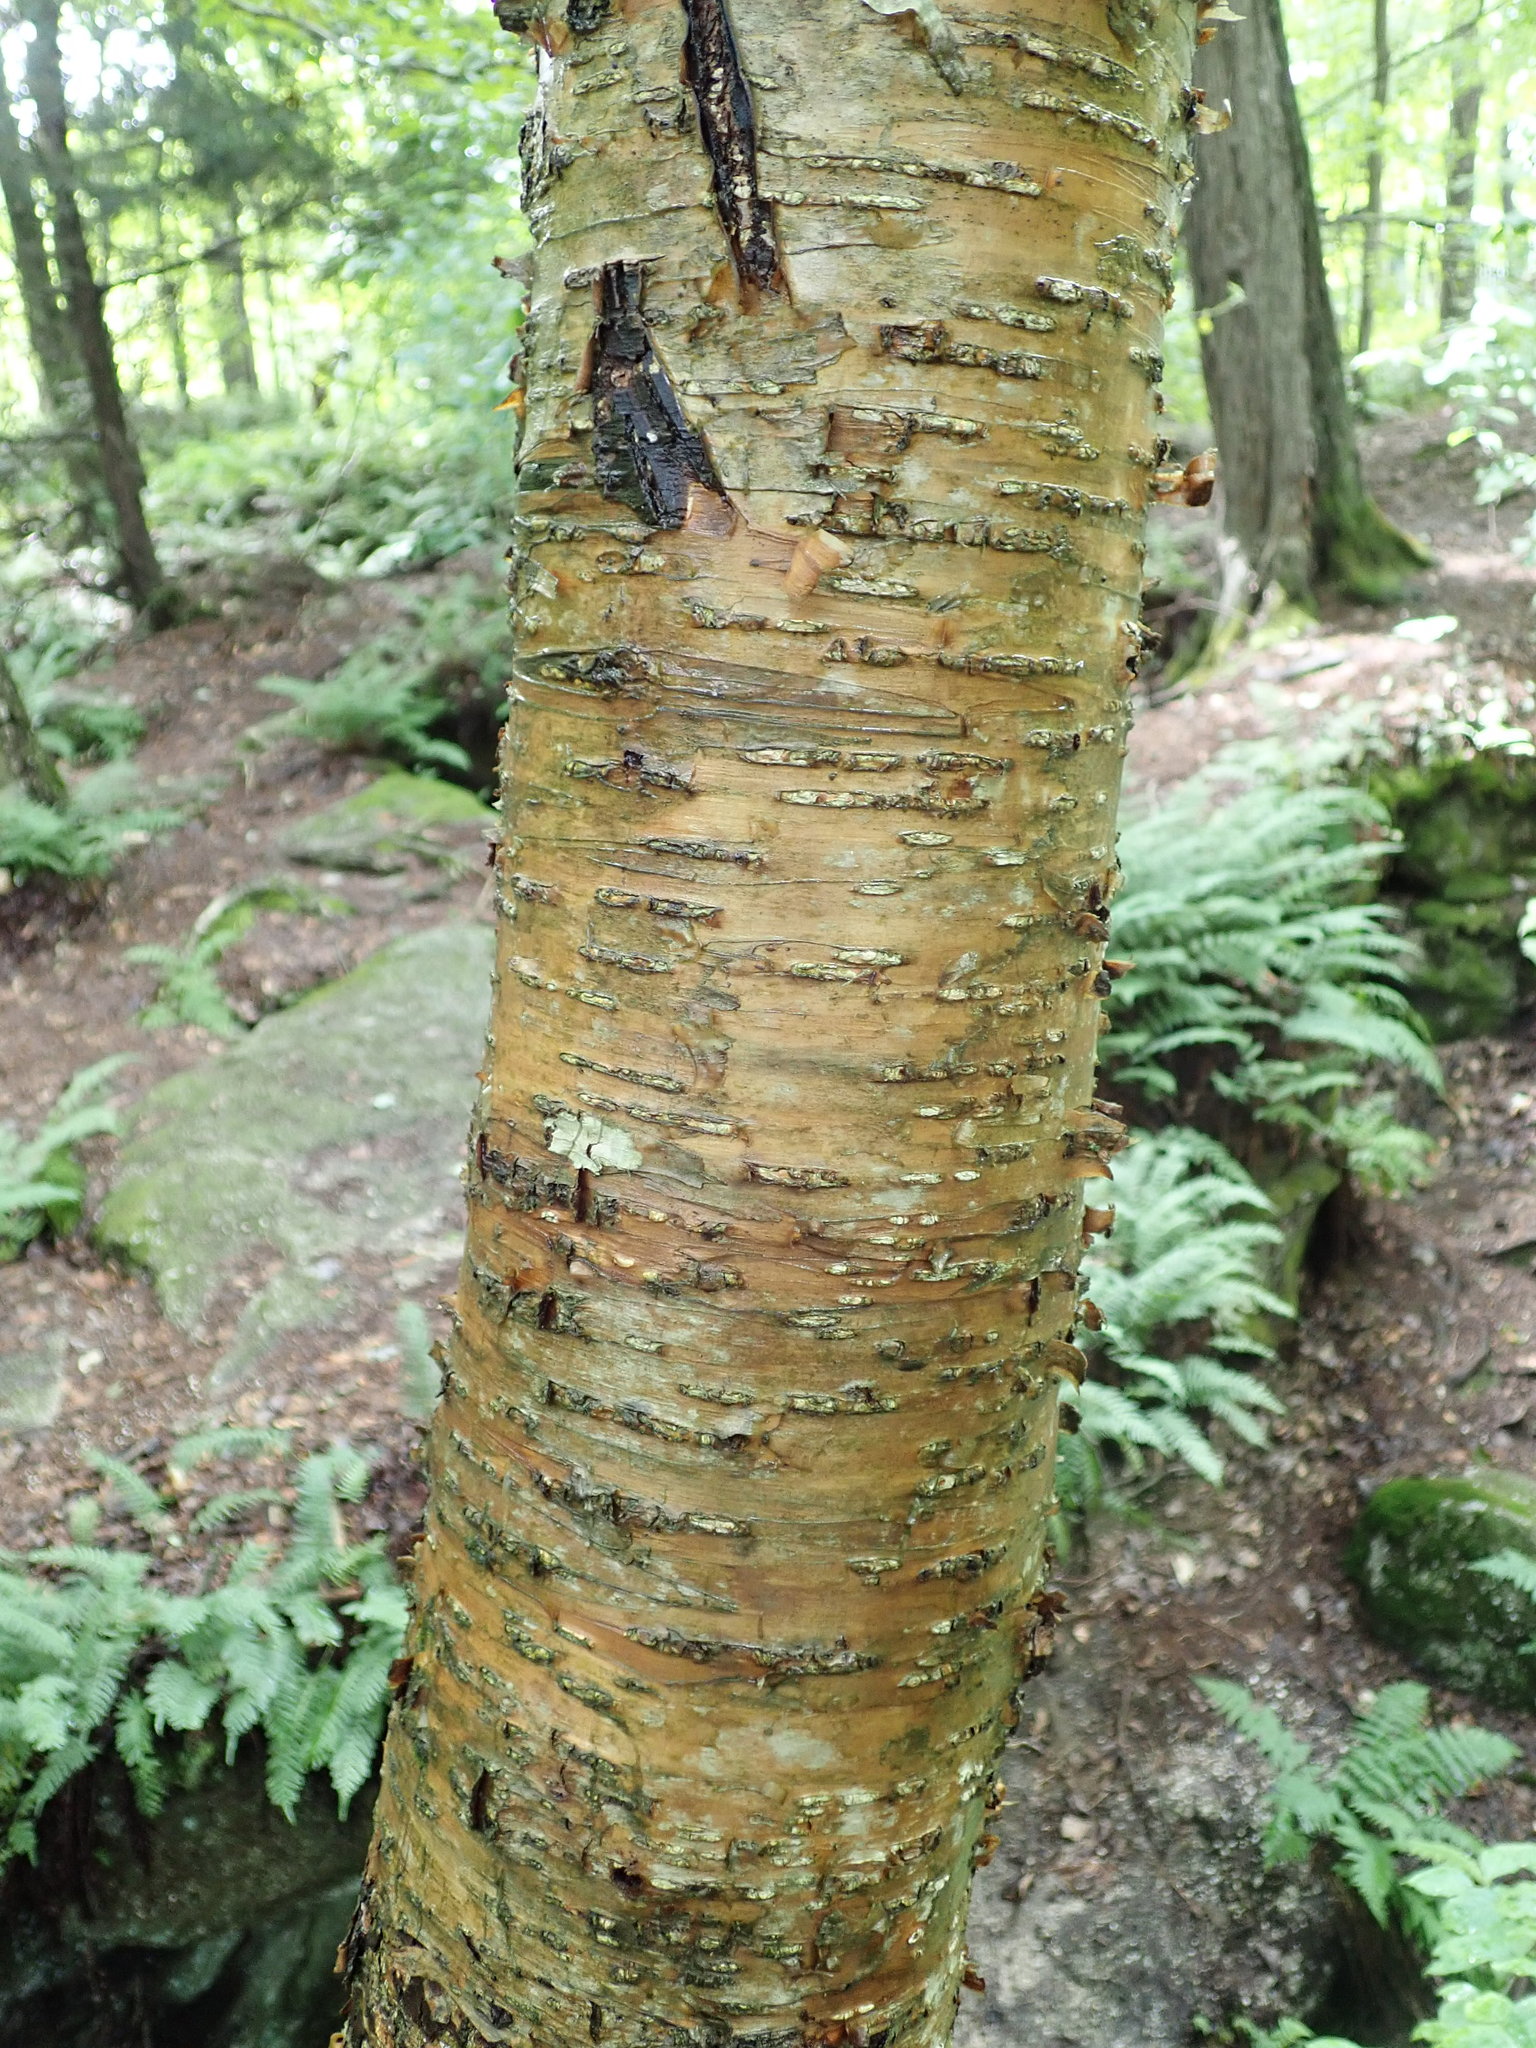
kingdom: Plantae
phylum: Tracheophyta
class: Magnoliopsida
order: Fagales
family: Betulaceae
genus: Betula
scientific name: Betula alleghaniensis
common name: Yellow birch
